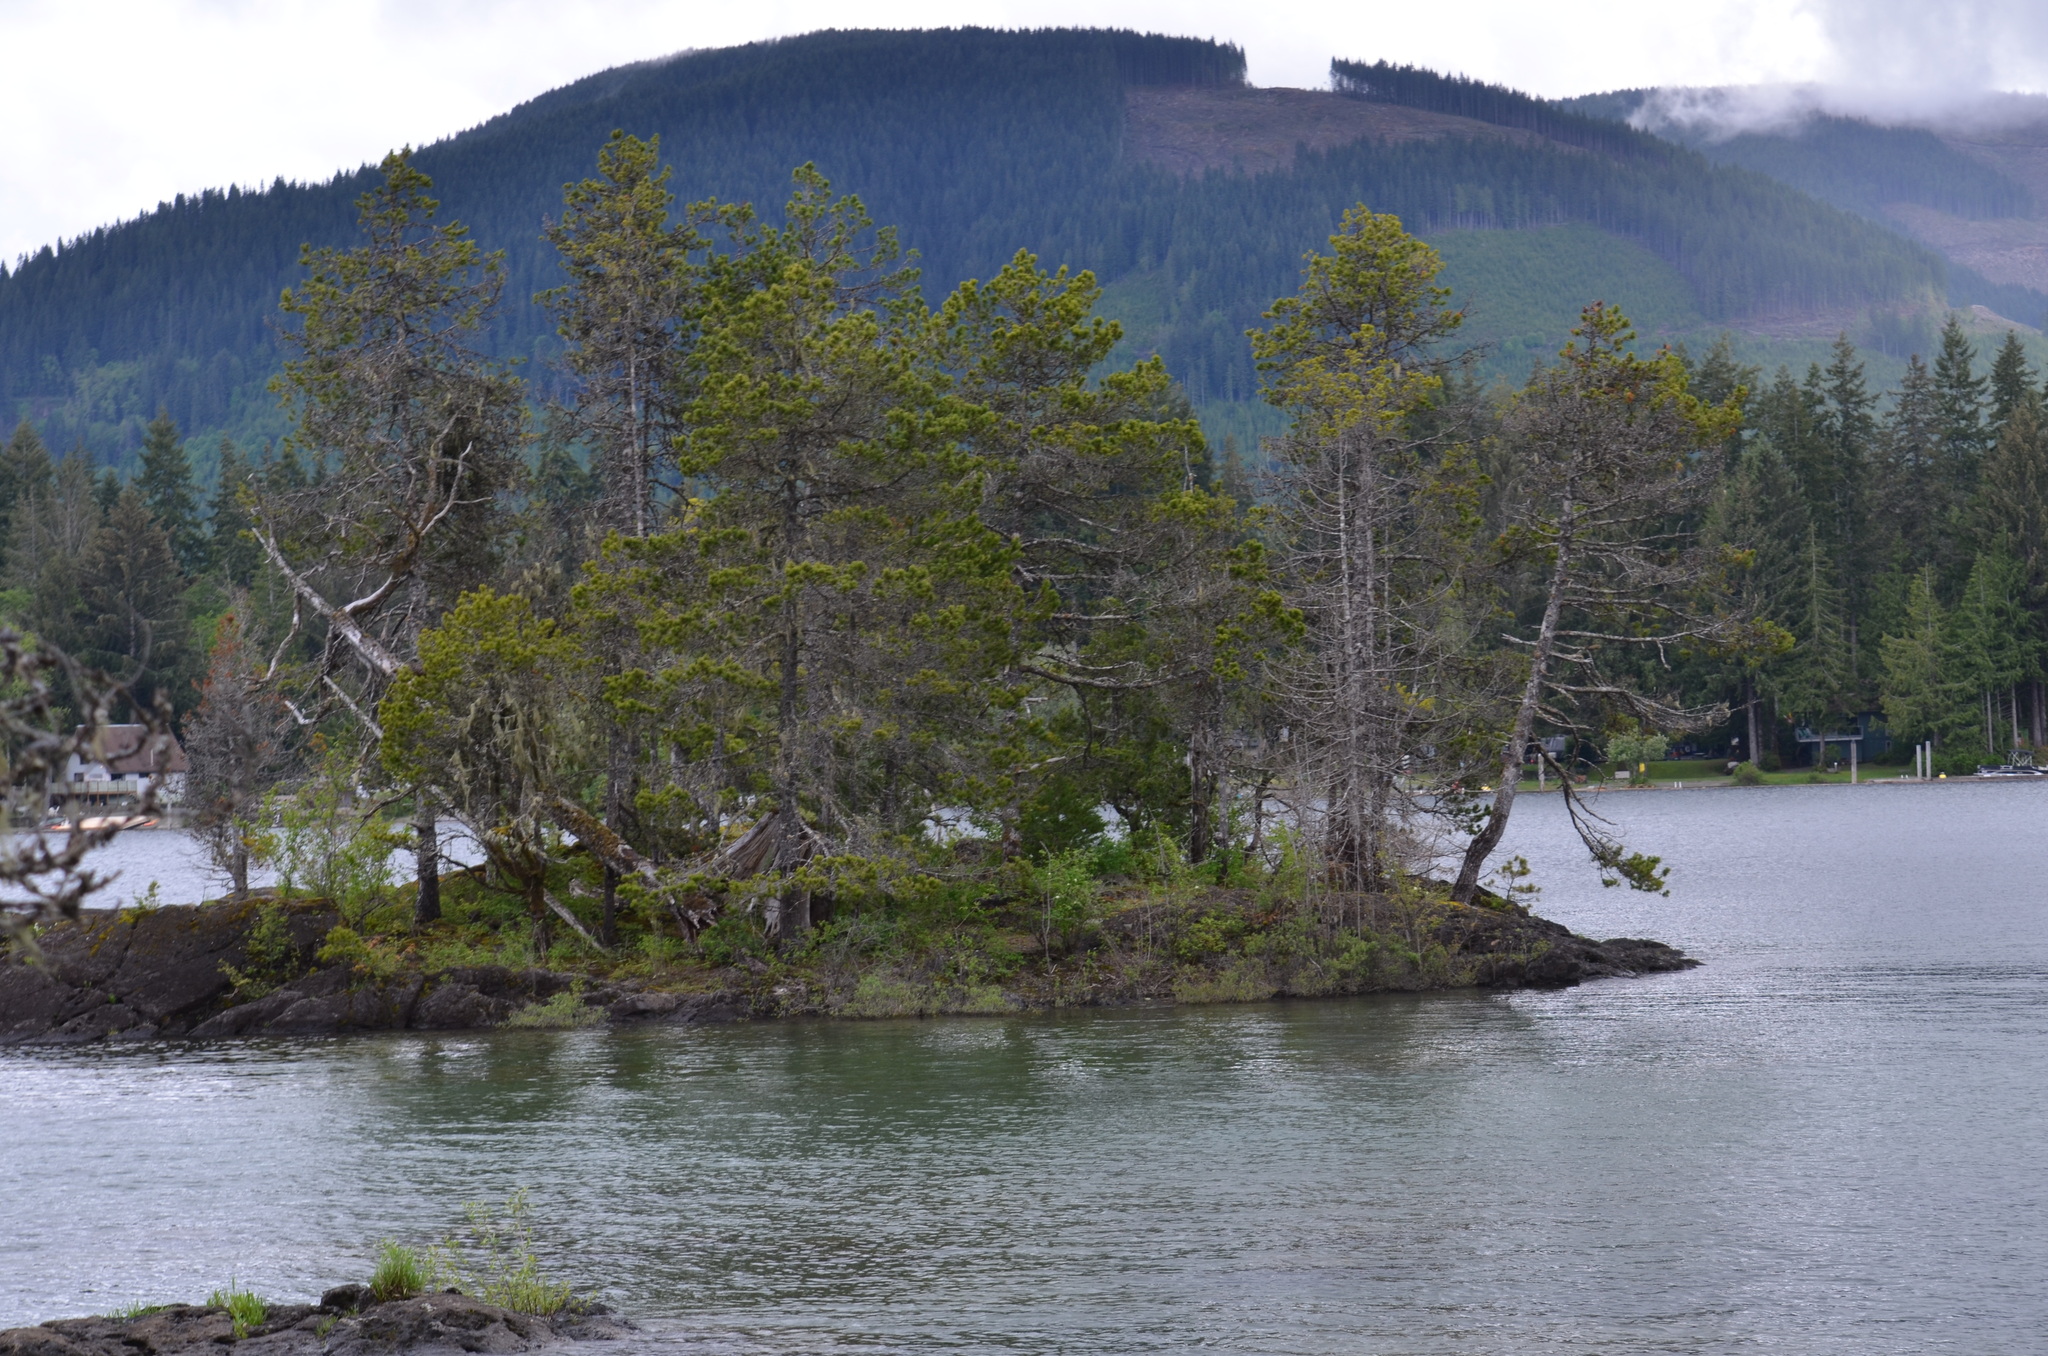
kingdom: Plantae
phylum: Tracheophyta
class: Pinopsida
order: Pinales
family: Pinaceae
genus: Pinus
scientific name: Pinus contorta
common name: Lodgepole pine
